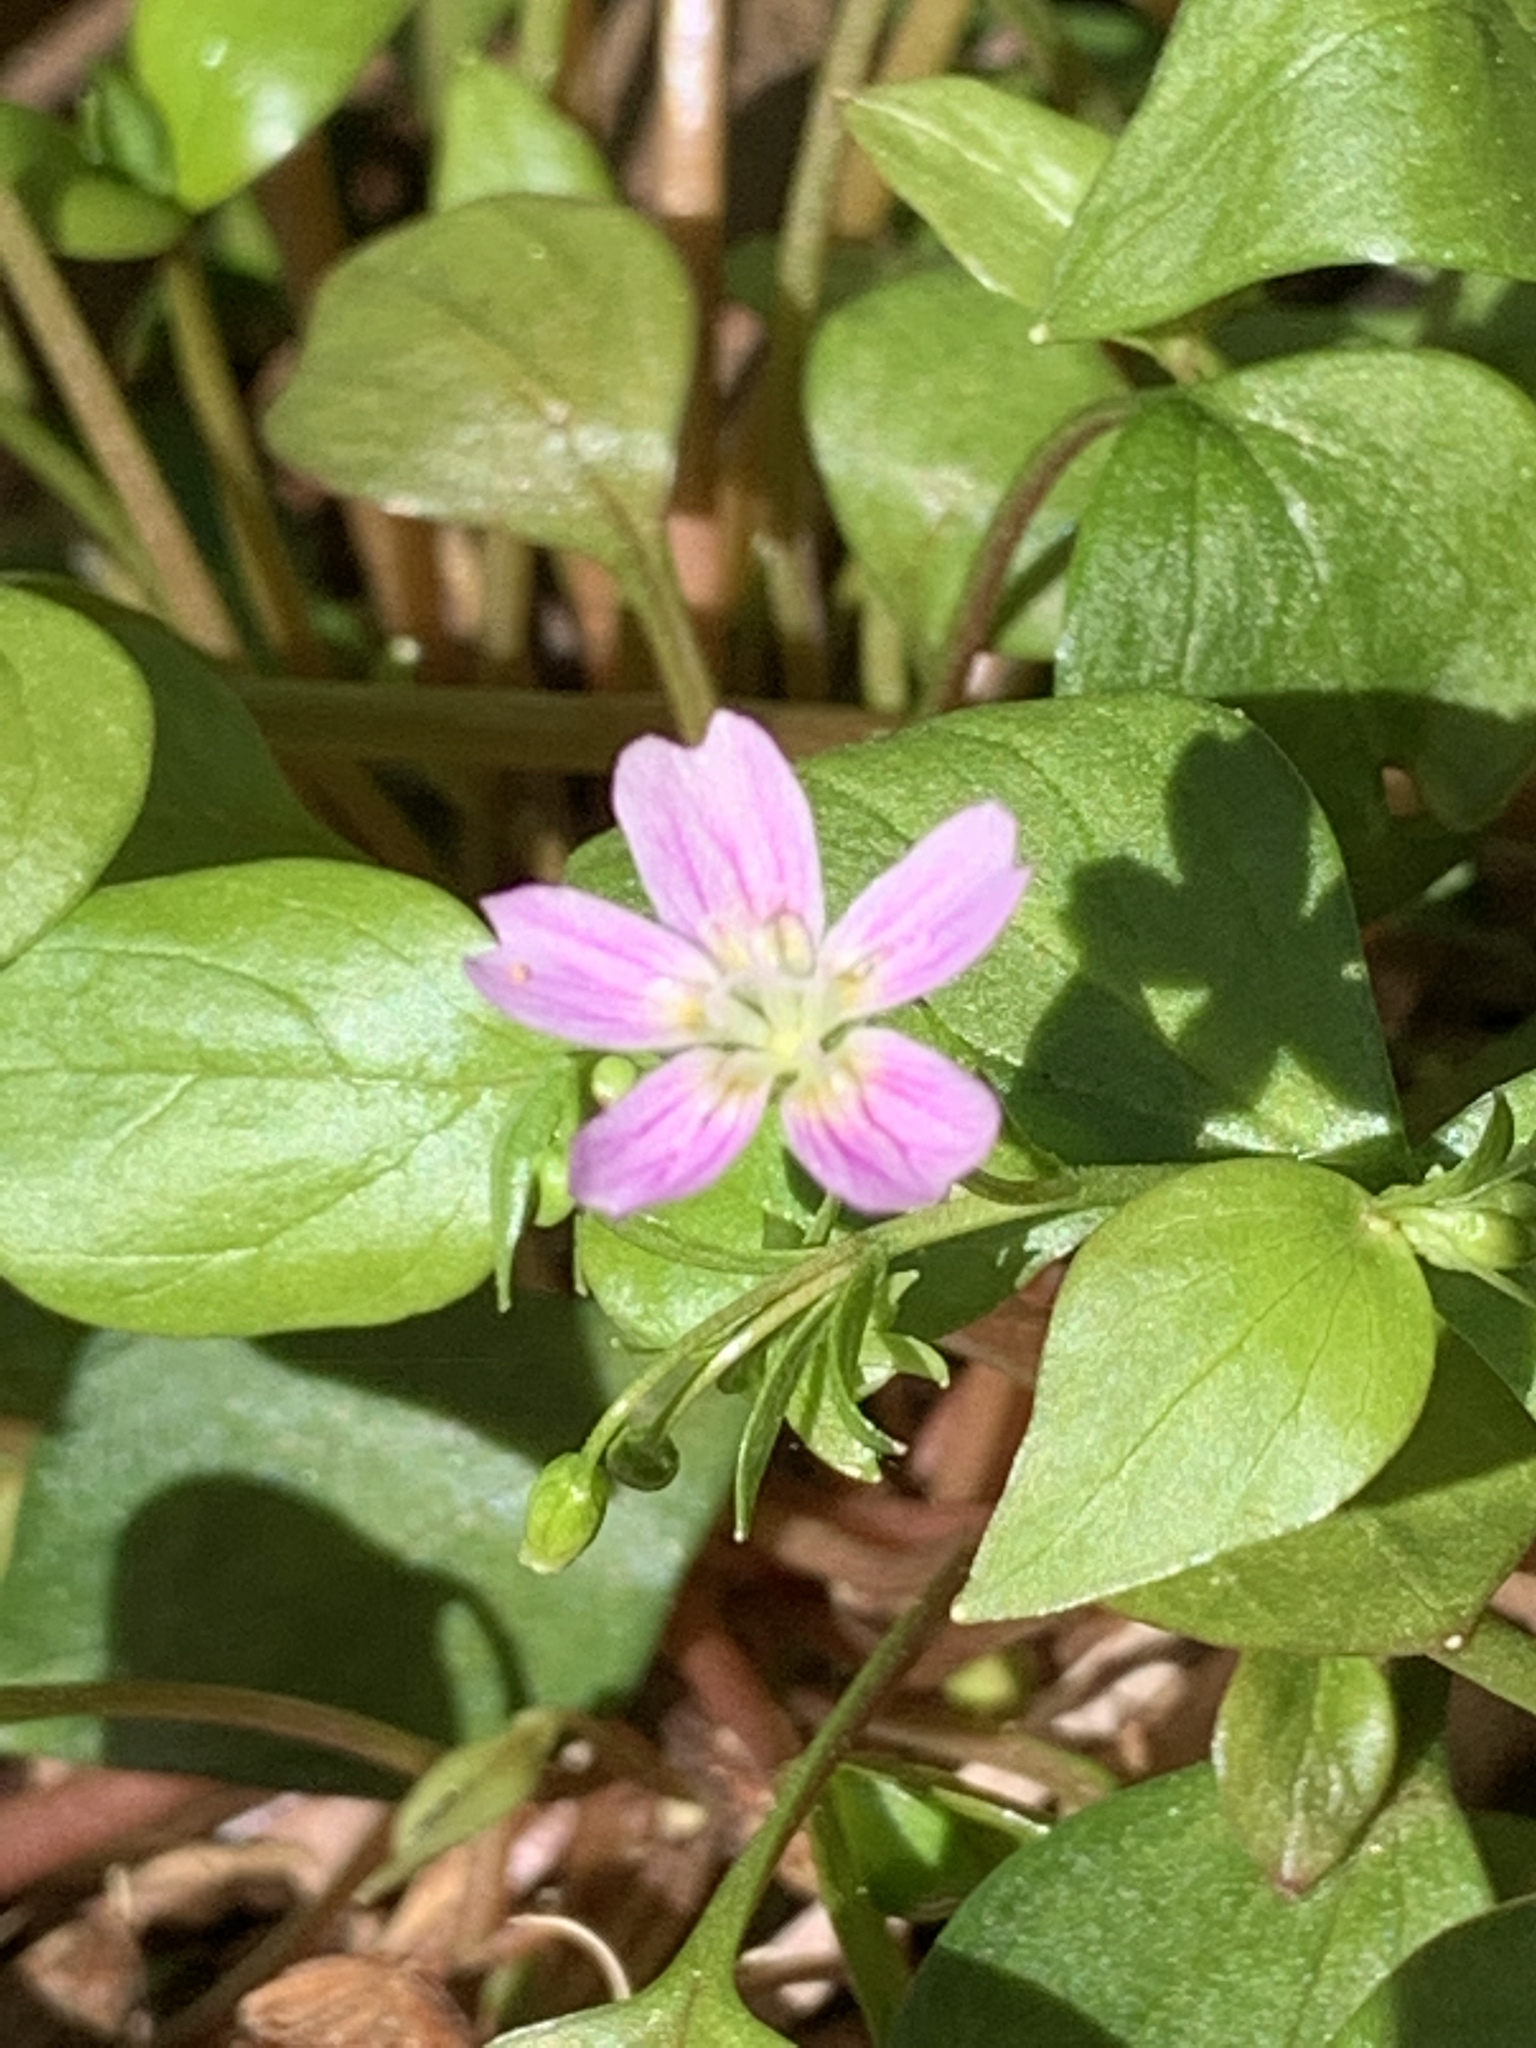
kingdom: Plantae
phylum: Tracheophyta
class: Magnoliopsida
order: Caryophyllales
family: Montiaceae
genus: Claytonia
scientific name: Claytonia sibirica
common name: Pink purslane
